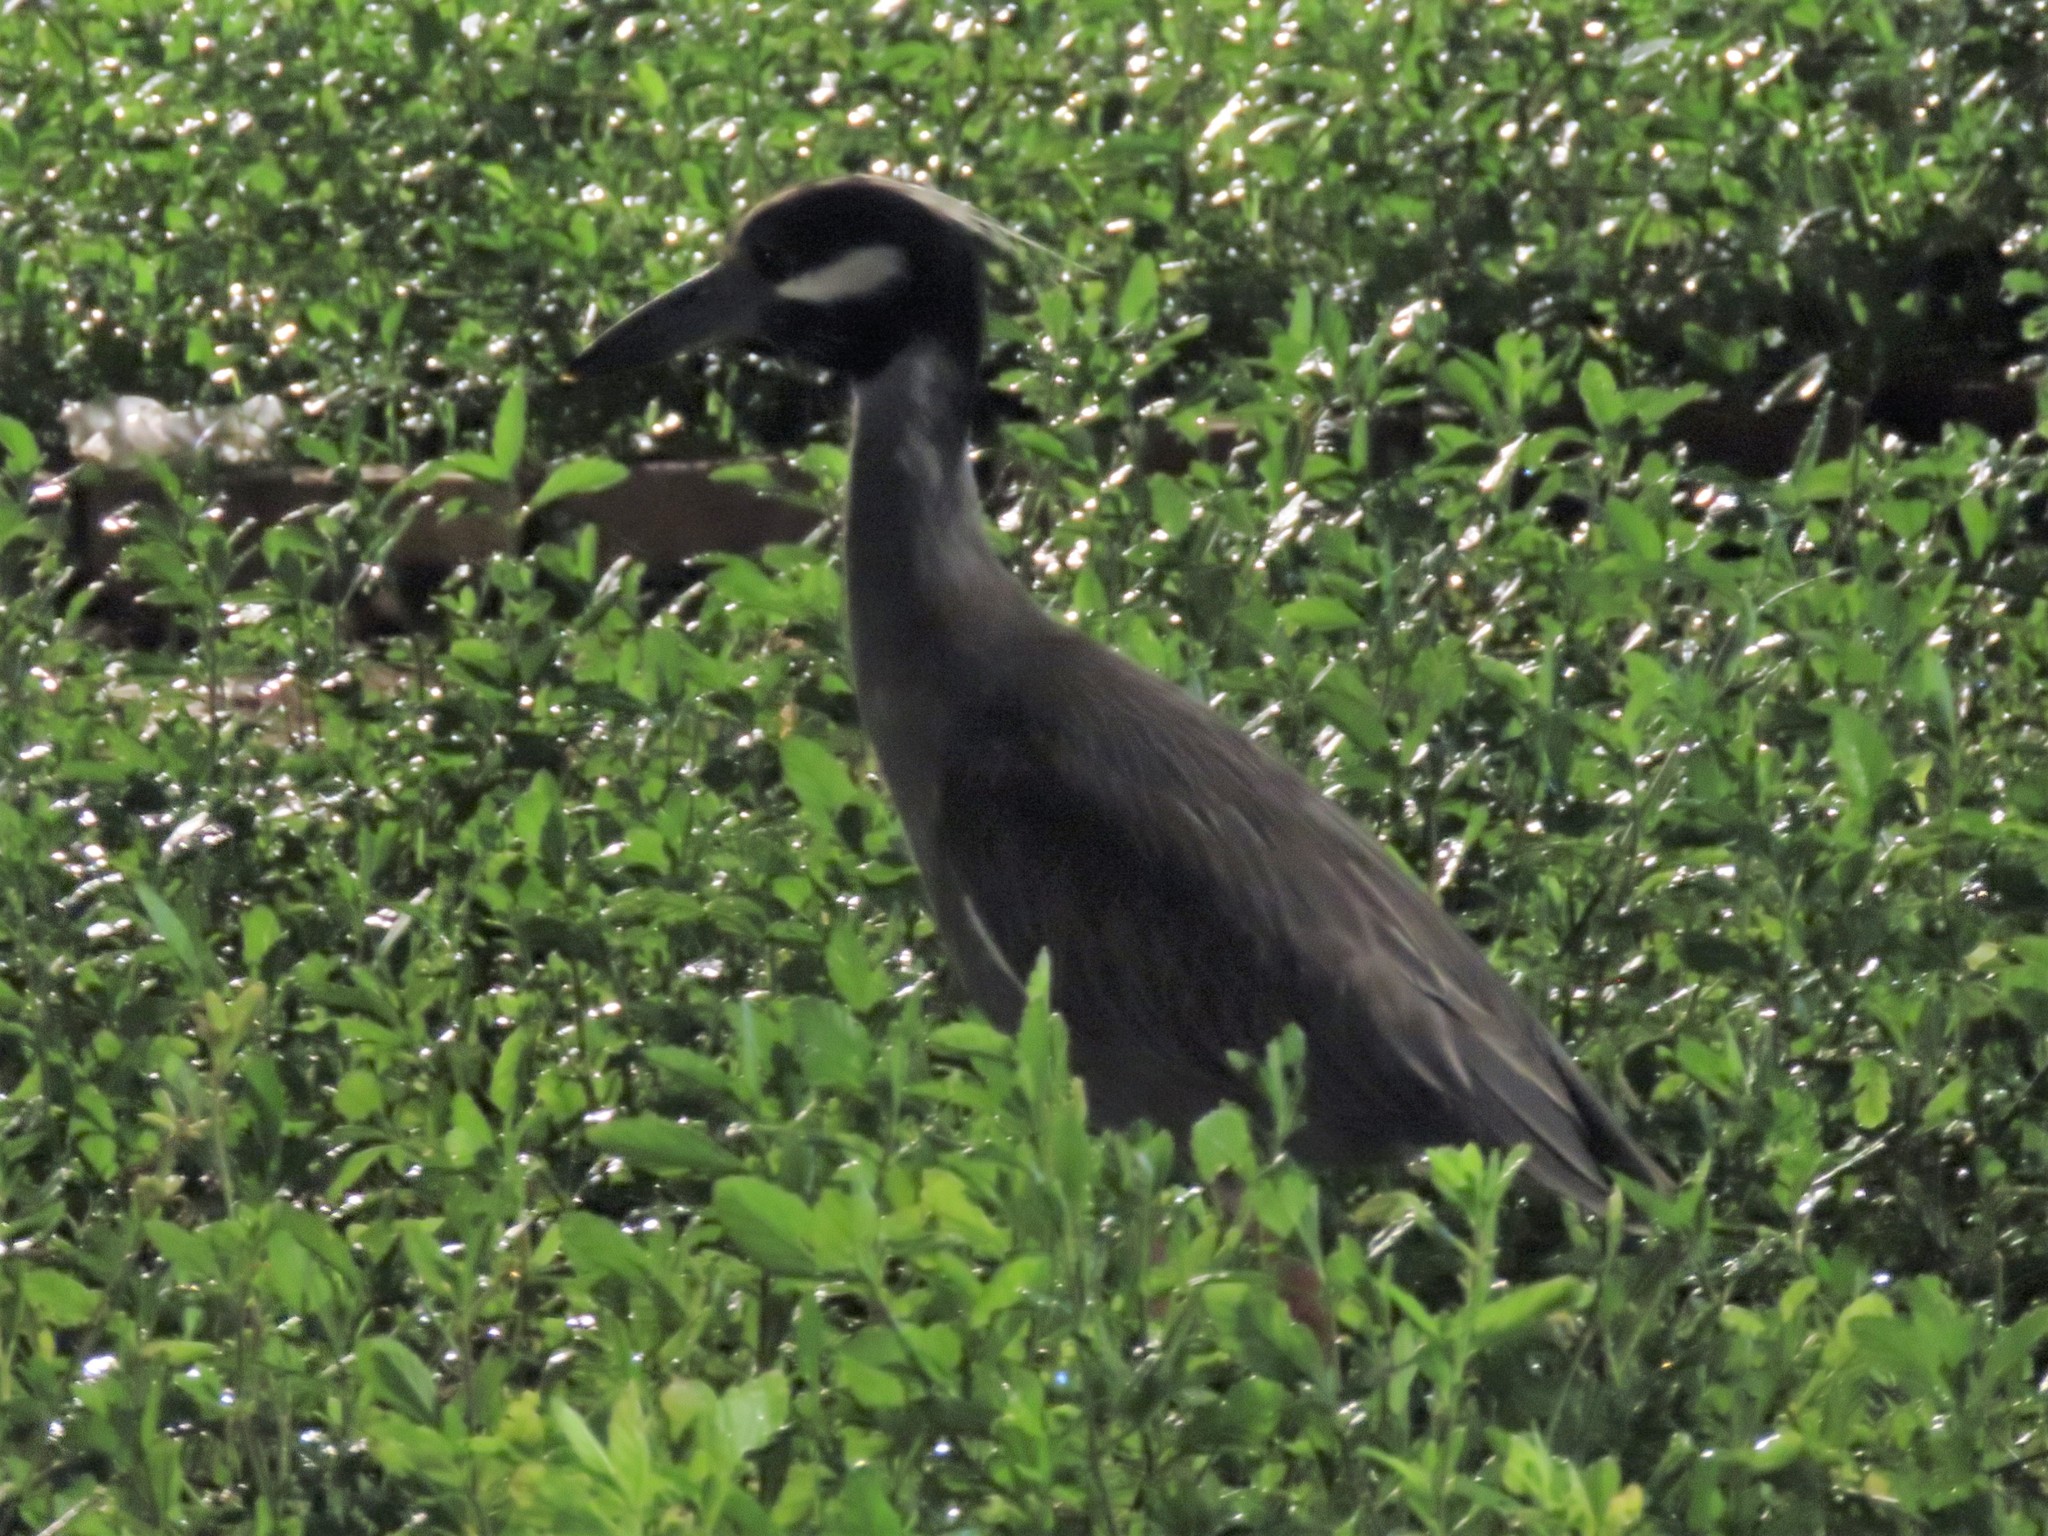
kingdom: Animalia
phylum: Chordata
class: Aves
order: Pelecaniformes
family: Ardeidae
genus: Nyctanassa
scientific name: Nyctanassa violacea
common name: Yellow-crowned night heron
